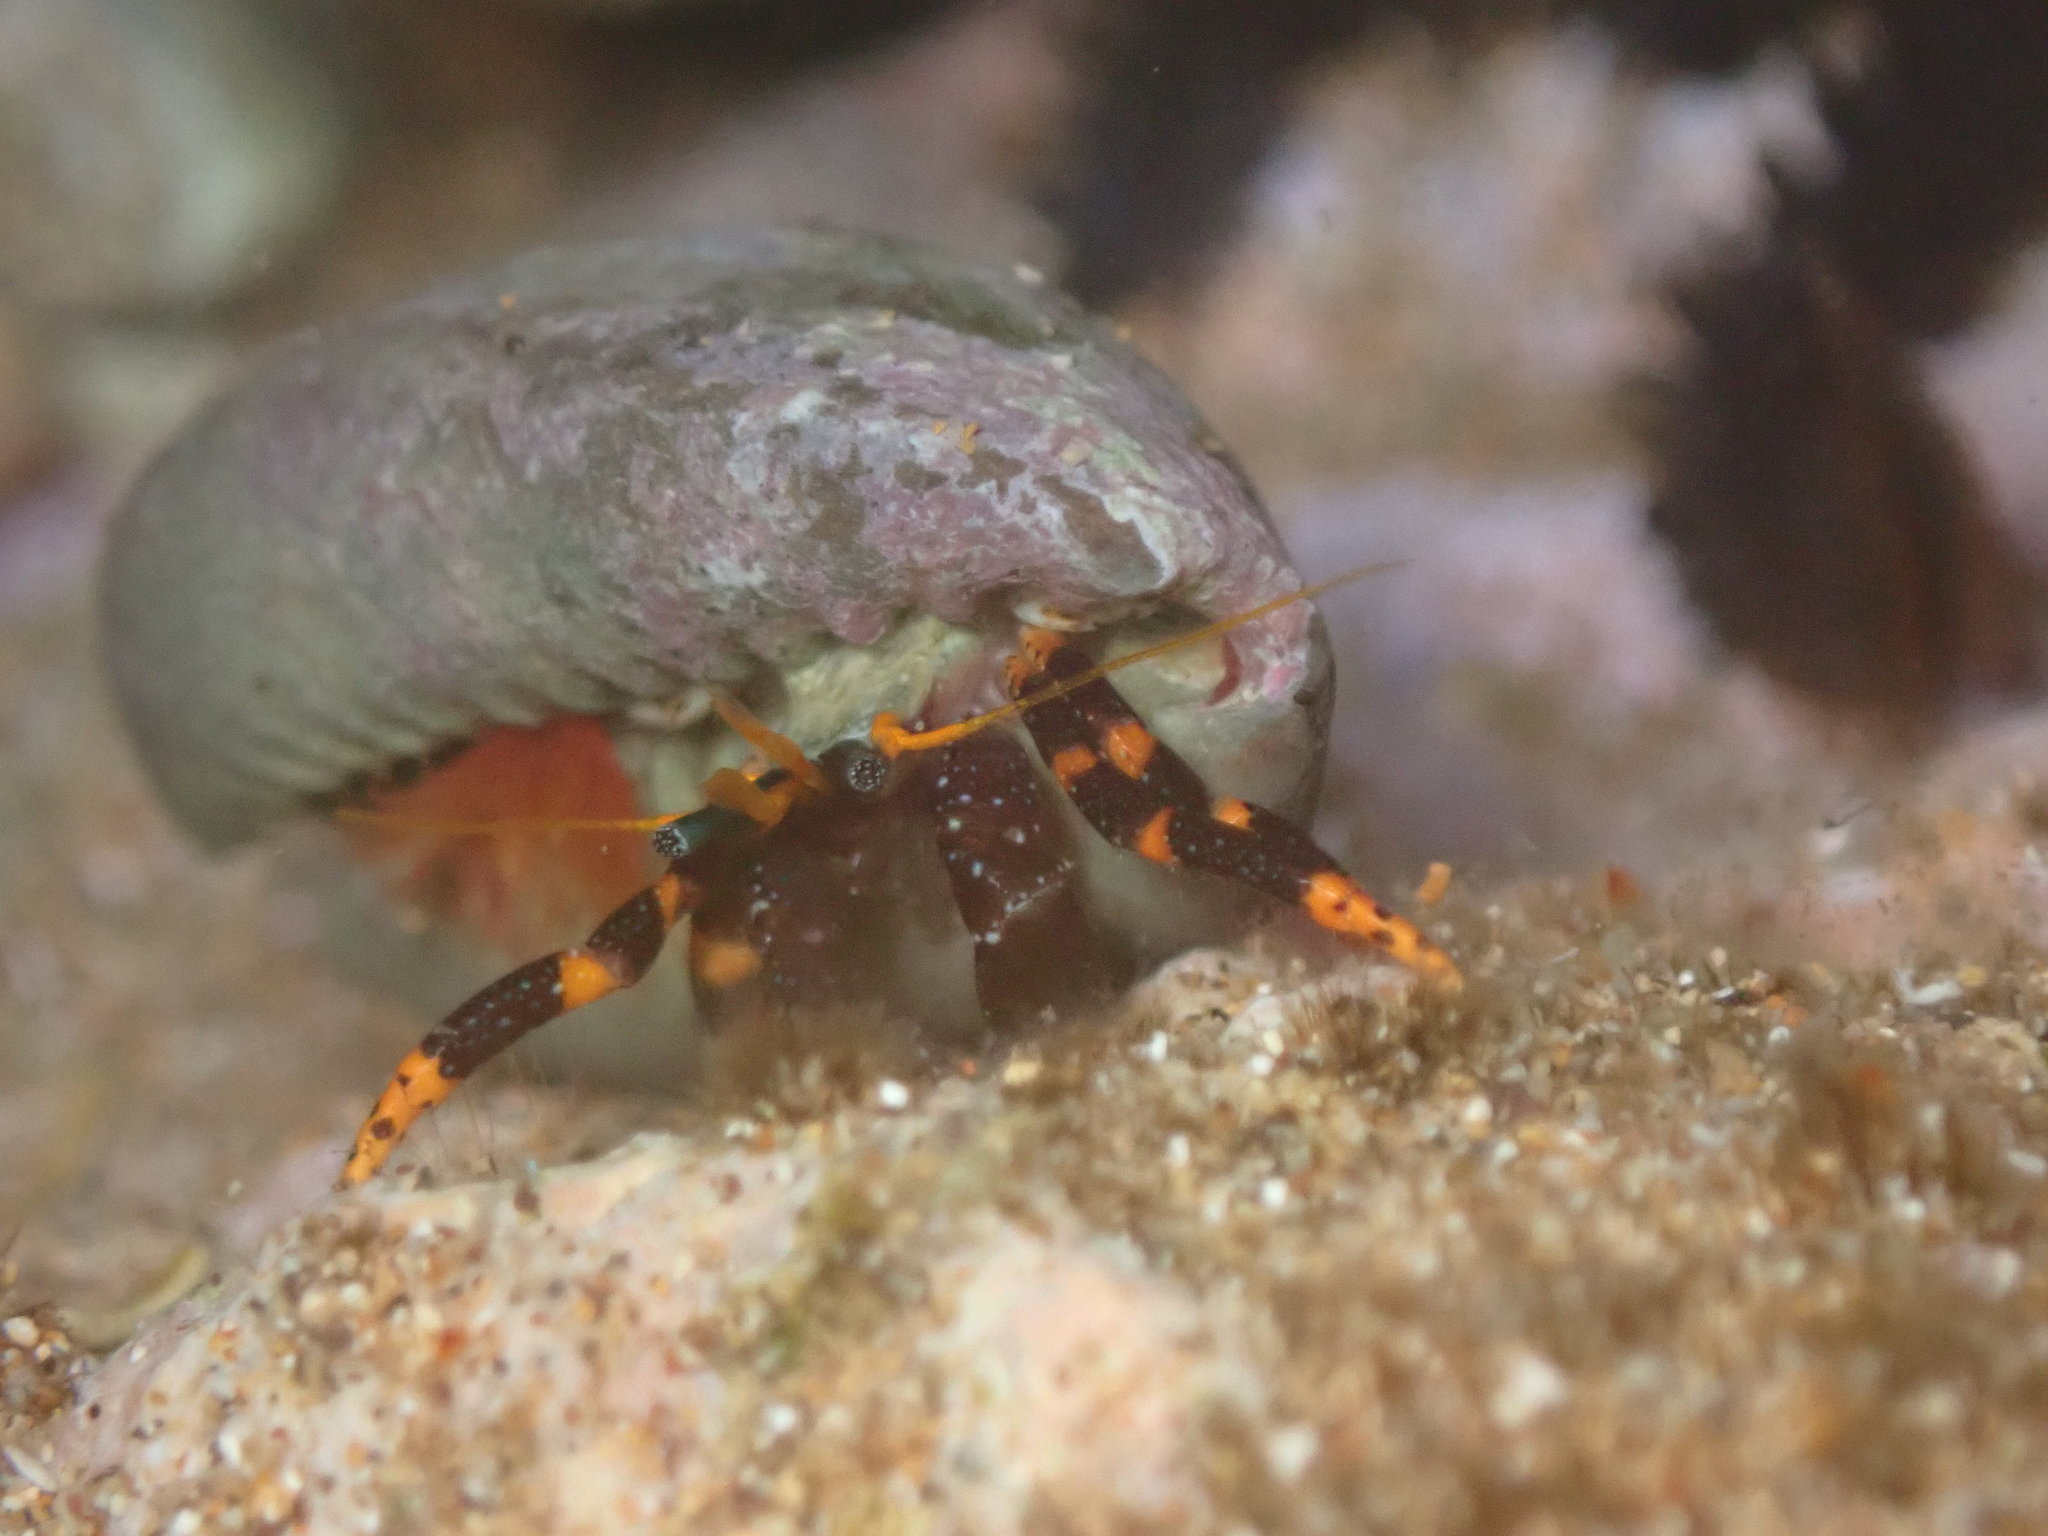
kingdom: Animalia
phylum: Arthropoda
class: Malacostraca
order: Decapoda
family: Diogenidae
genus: Calcinus
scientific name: Calcinus pictus
